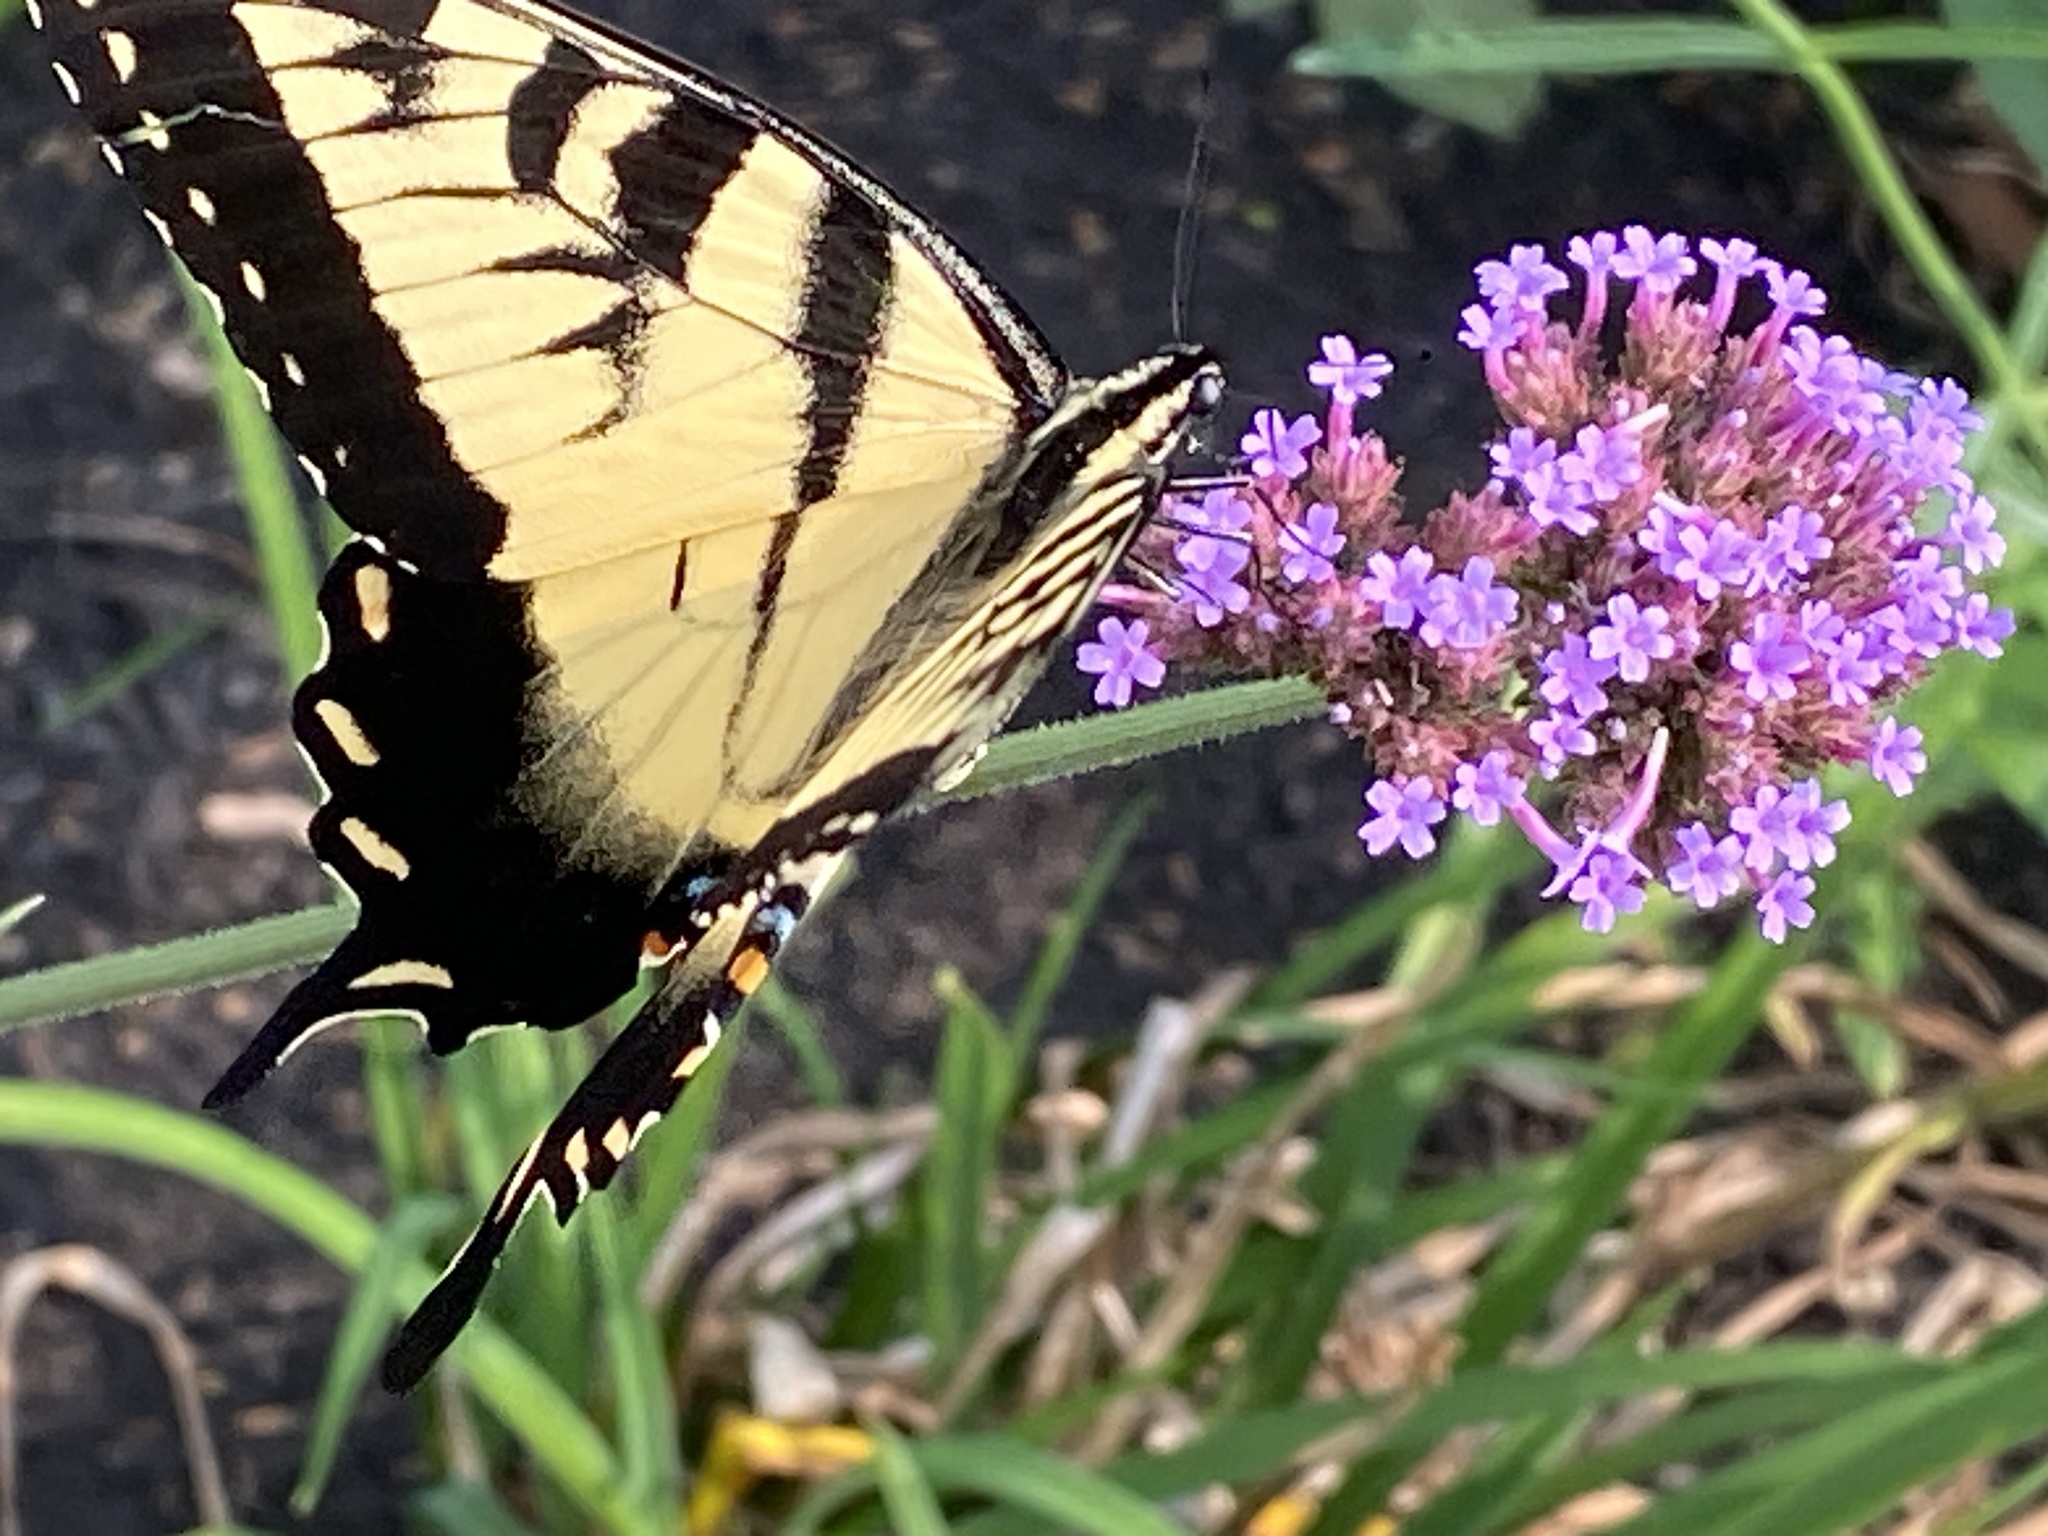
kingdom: Animalia
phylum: Arthropoda
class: Insecta
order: Lepidoptera
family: Papilionidae
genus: Papilio
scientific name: Papilio glaucus
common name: Tiger swallowtail
